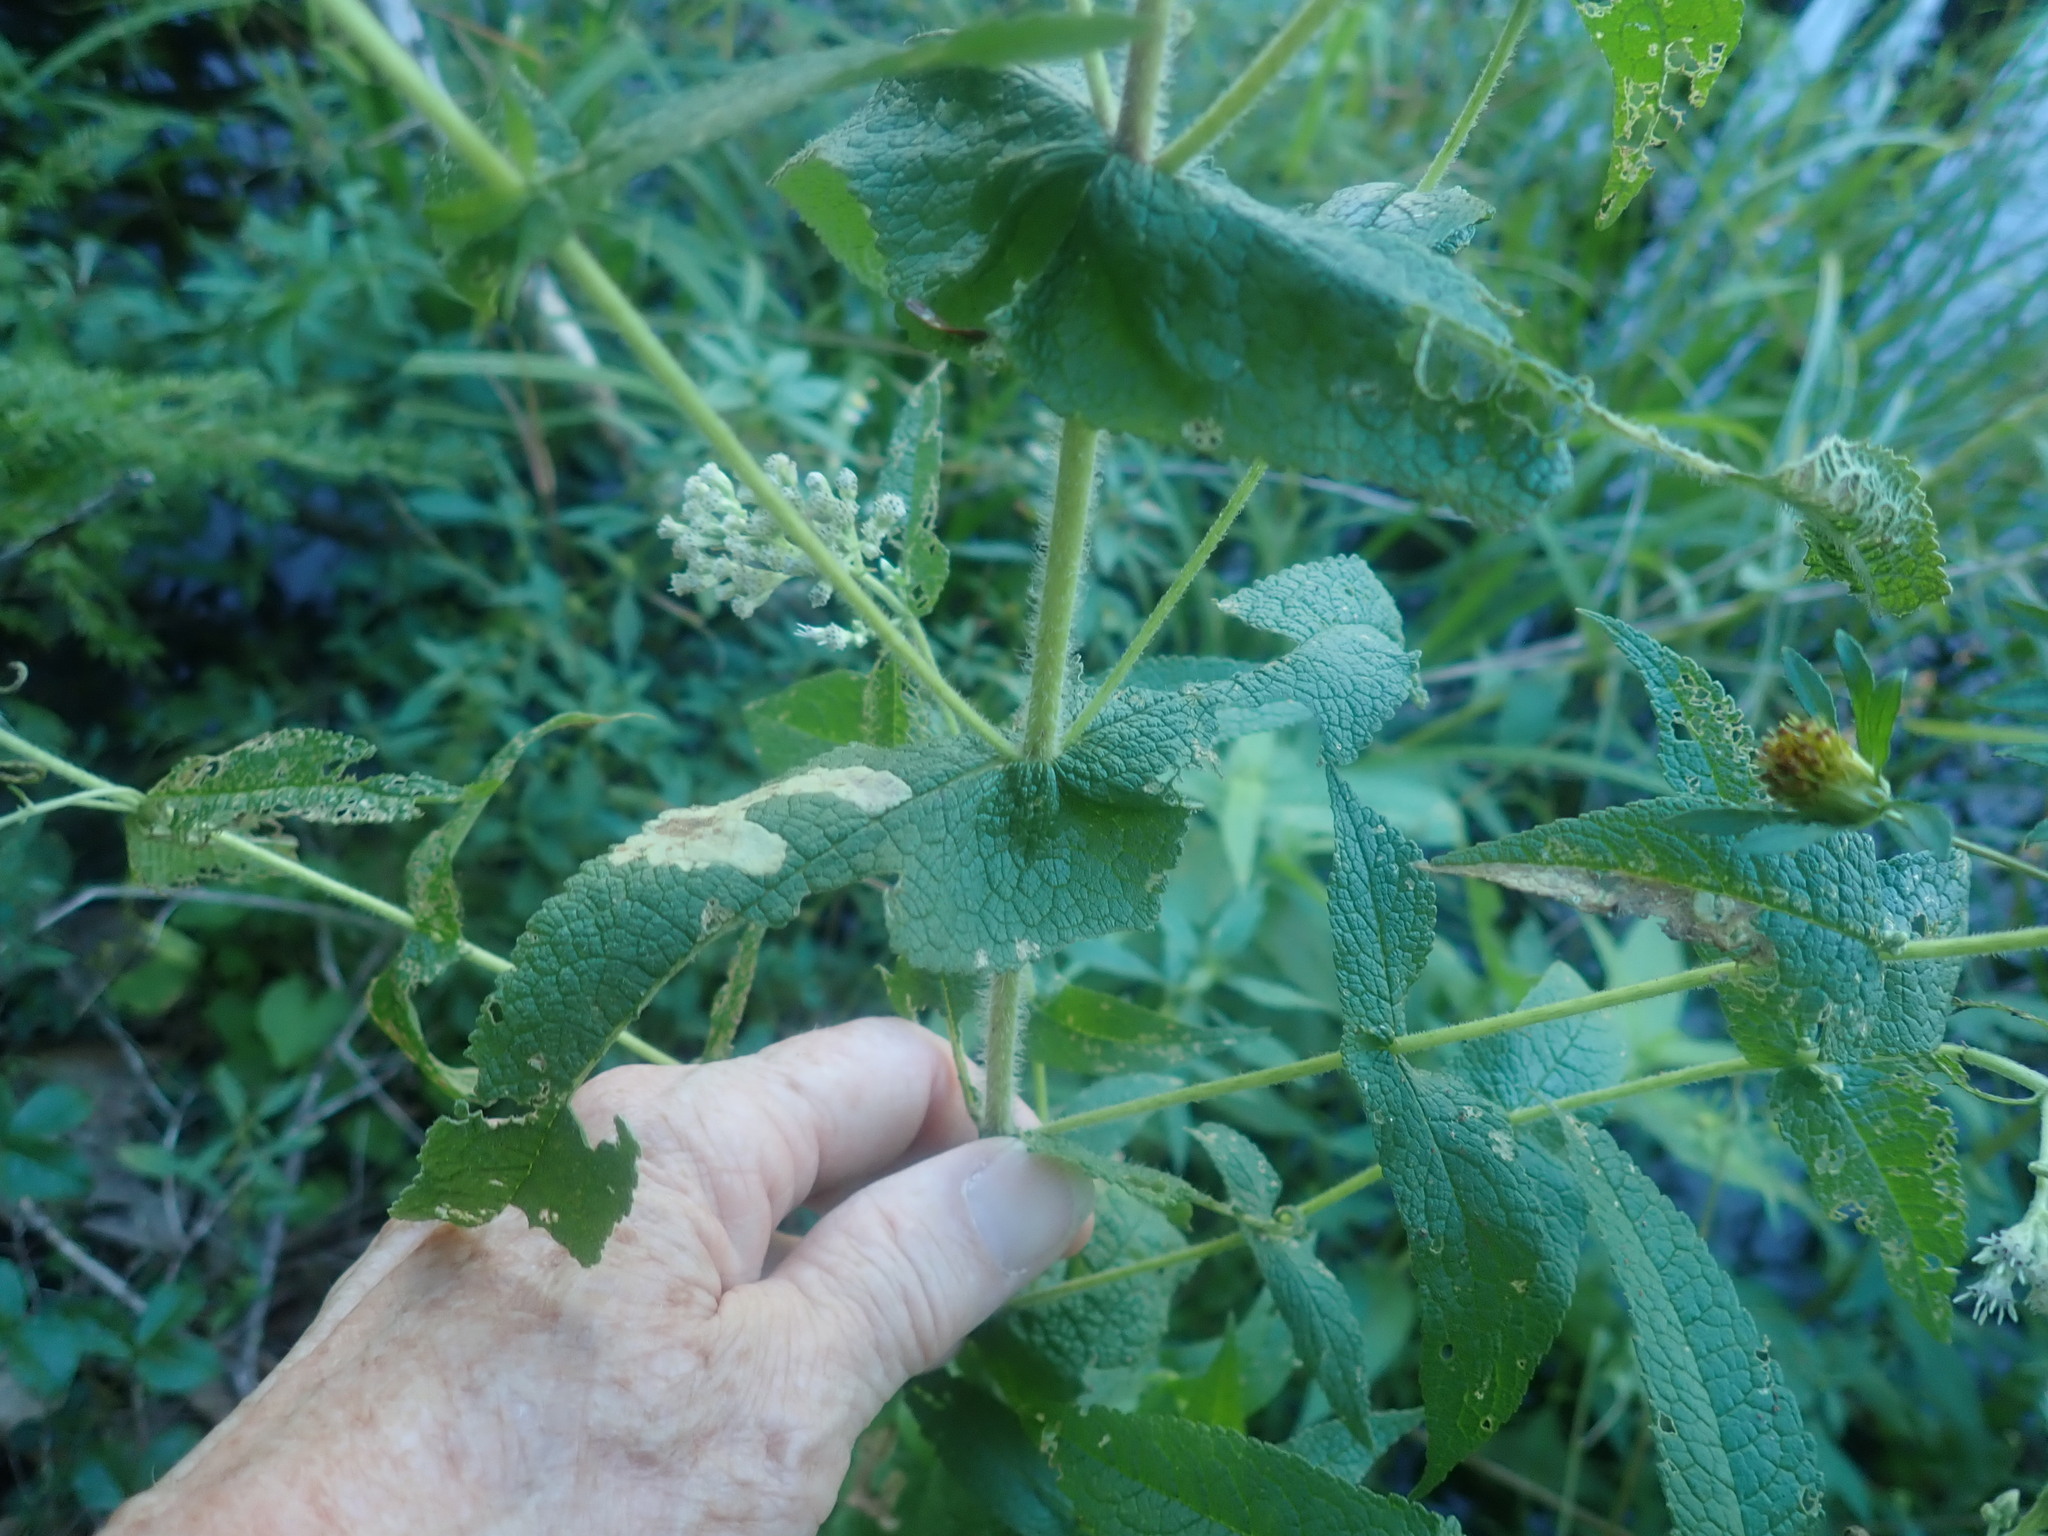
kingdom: Plantae
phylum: Tracheophyta
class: Magnoliopsida
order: Asterales
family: Asteraceae
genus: Eupatorium
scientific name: Eupatorium perfoliatum
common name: Boneset
